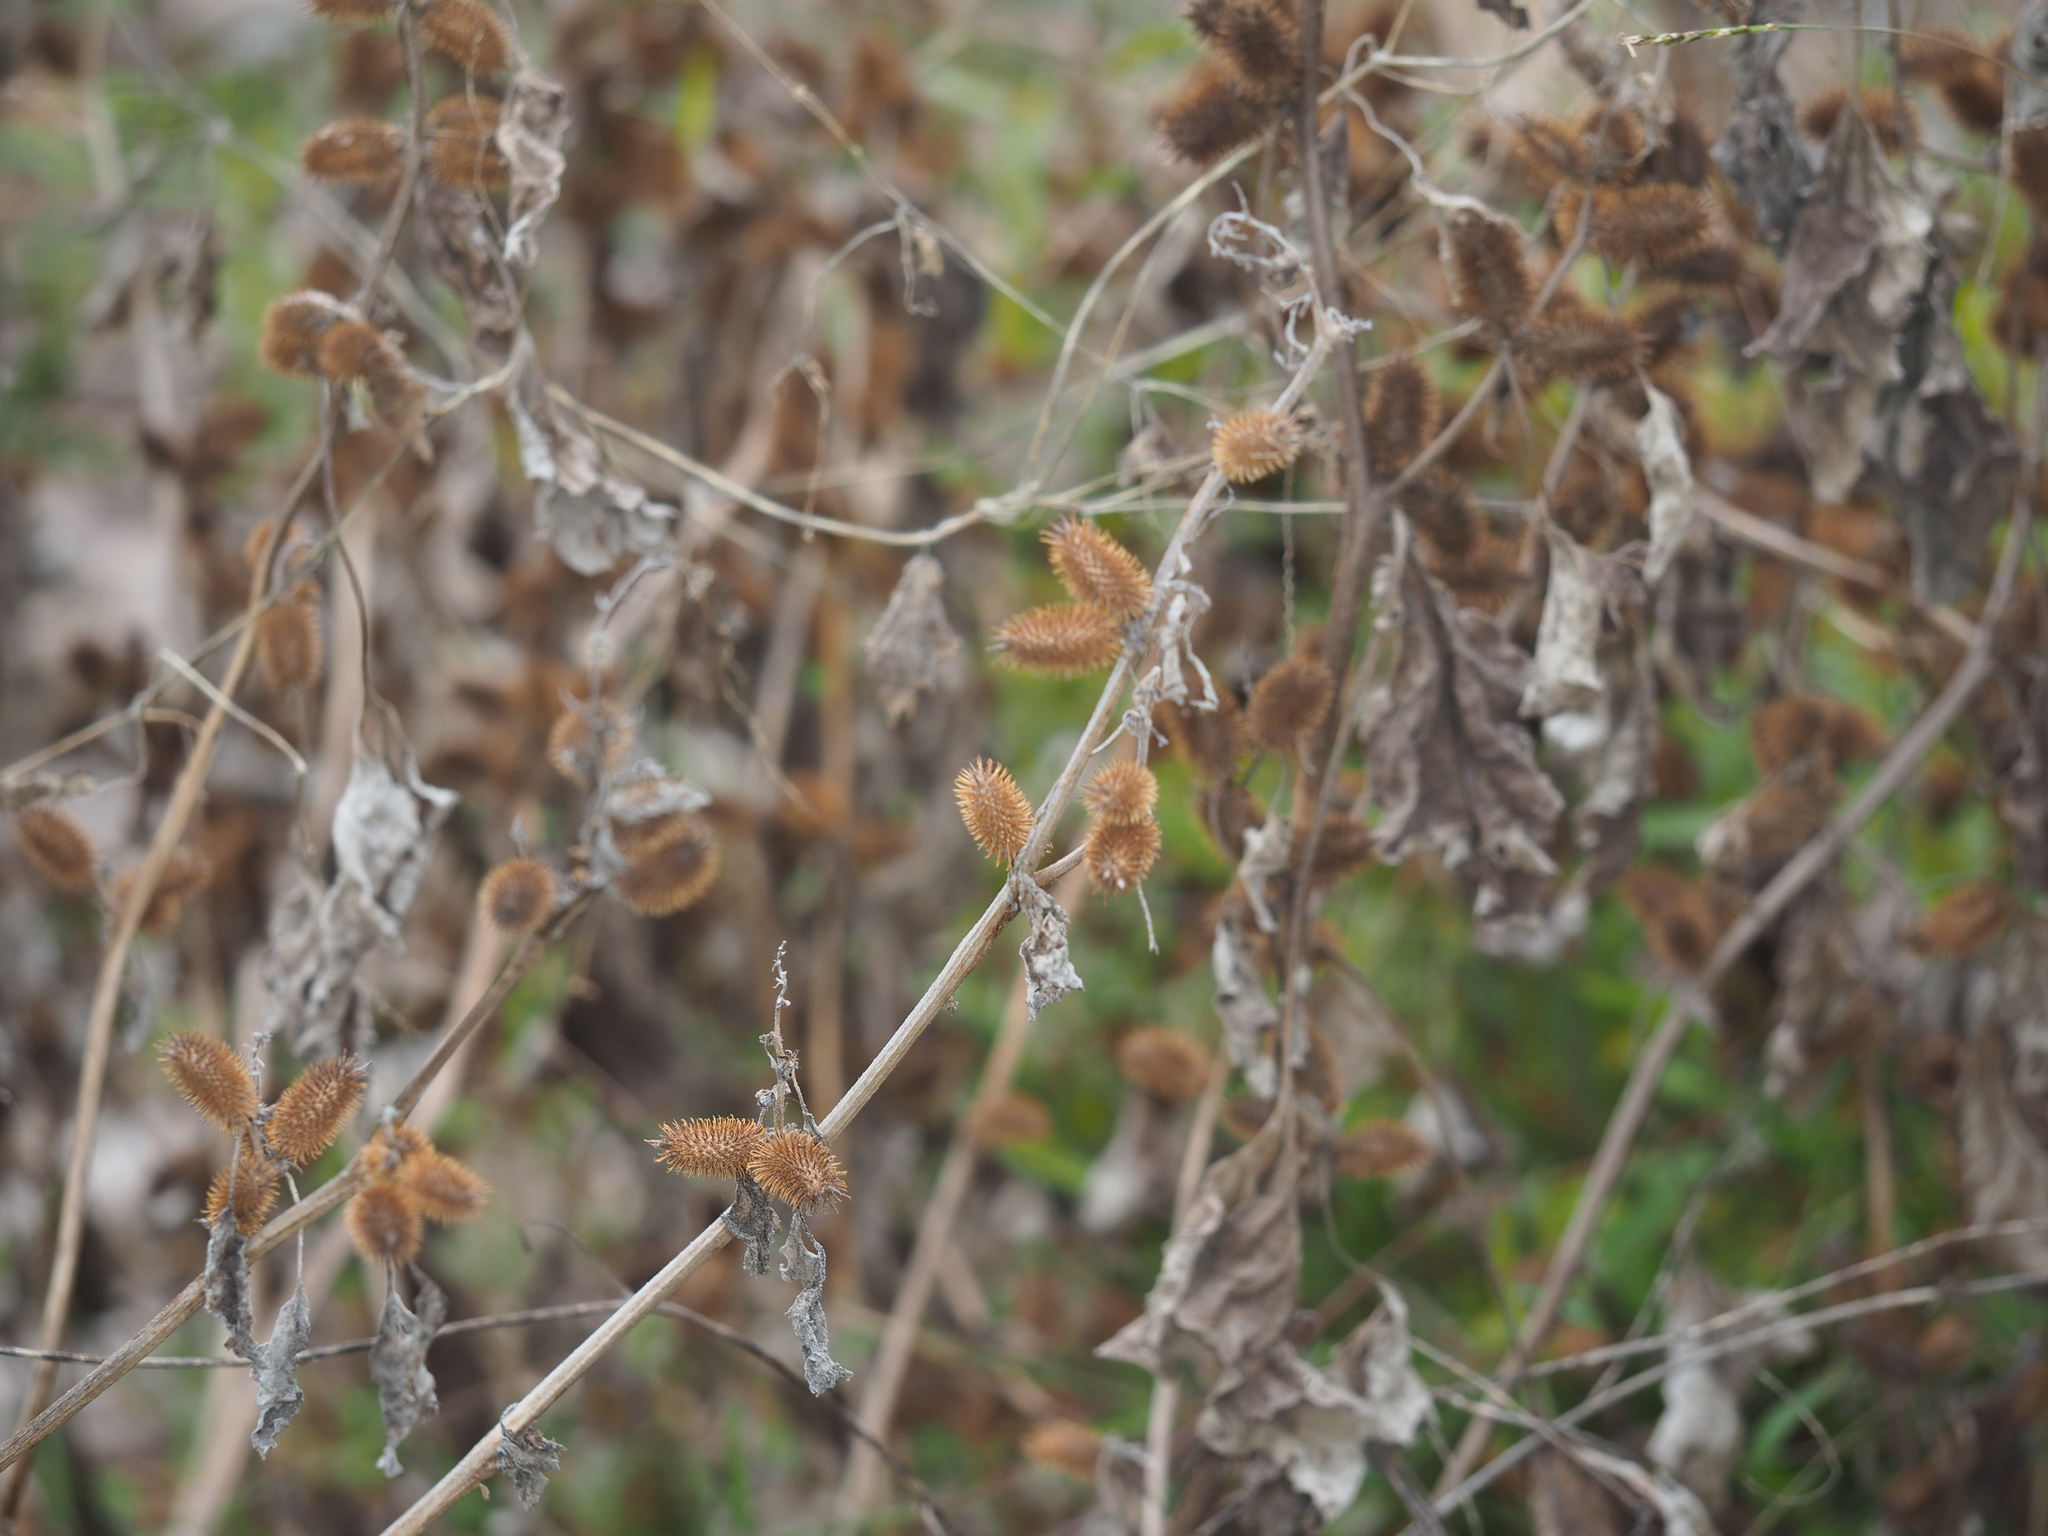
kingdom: Plantae
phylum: Tracheophyta
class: Magnoliopsida
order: Asterales
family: Asteraceae
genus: Xanthium
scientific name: Xanthium strumarium
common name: Rough cocklebur
